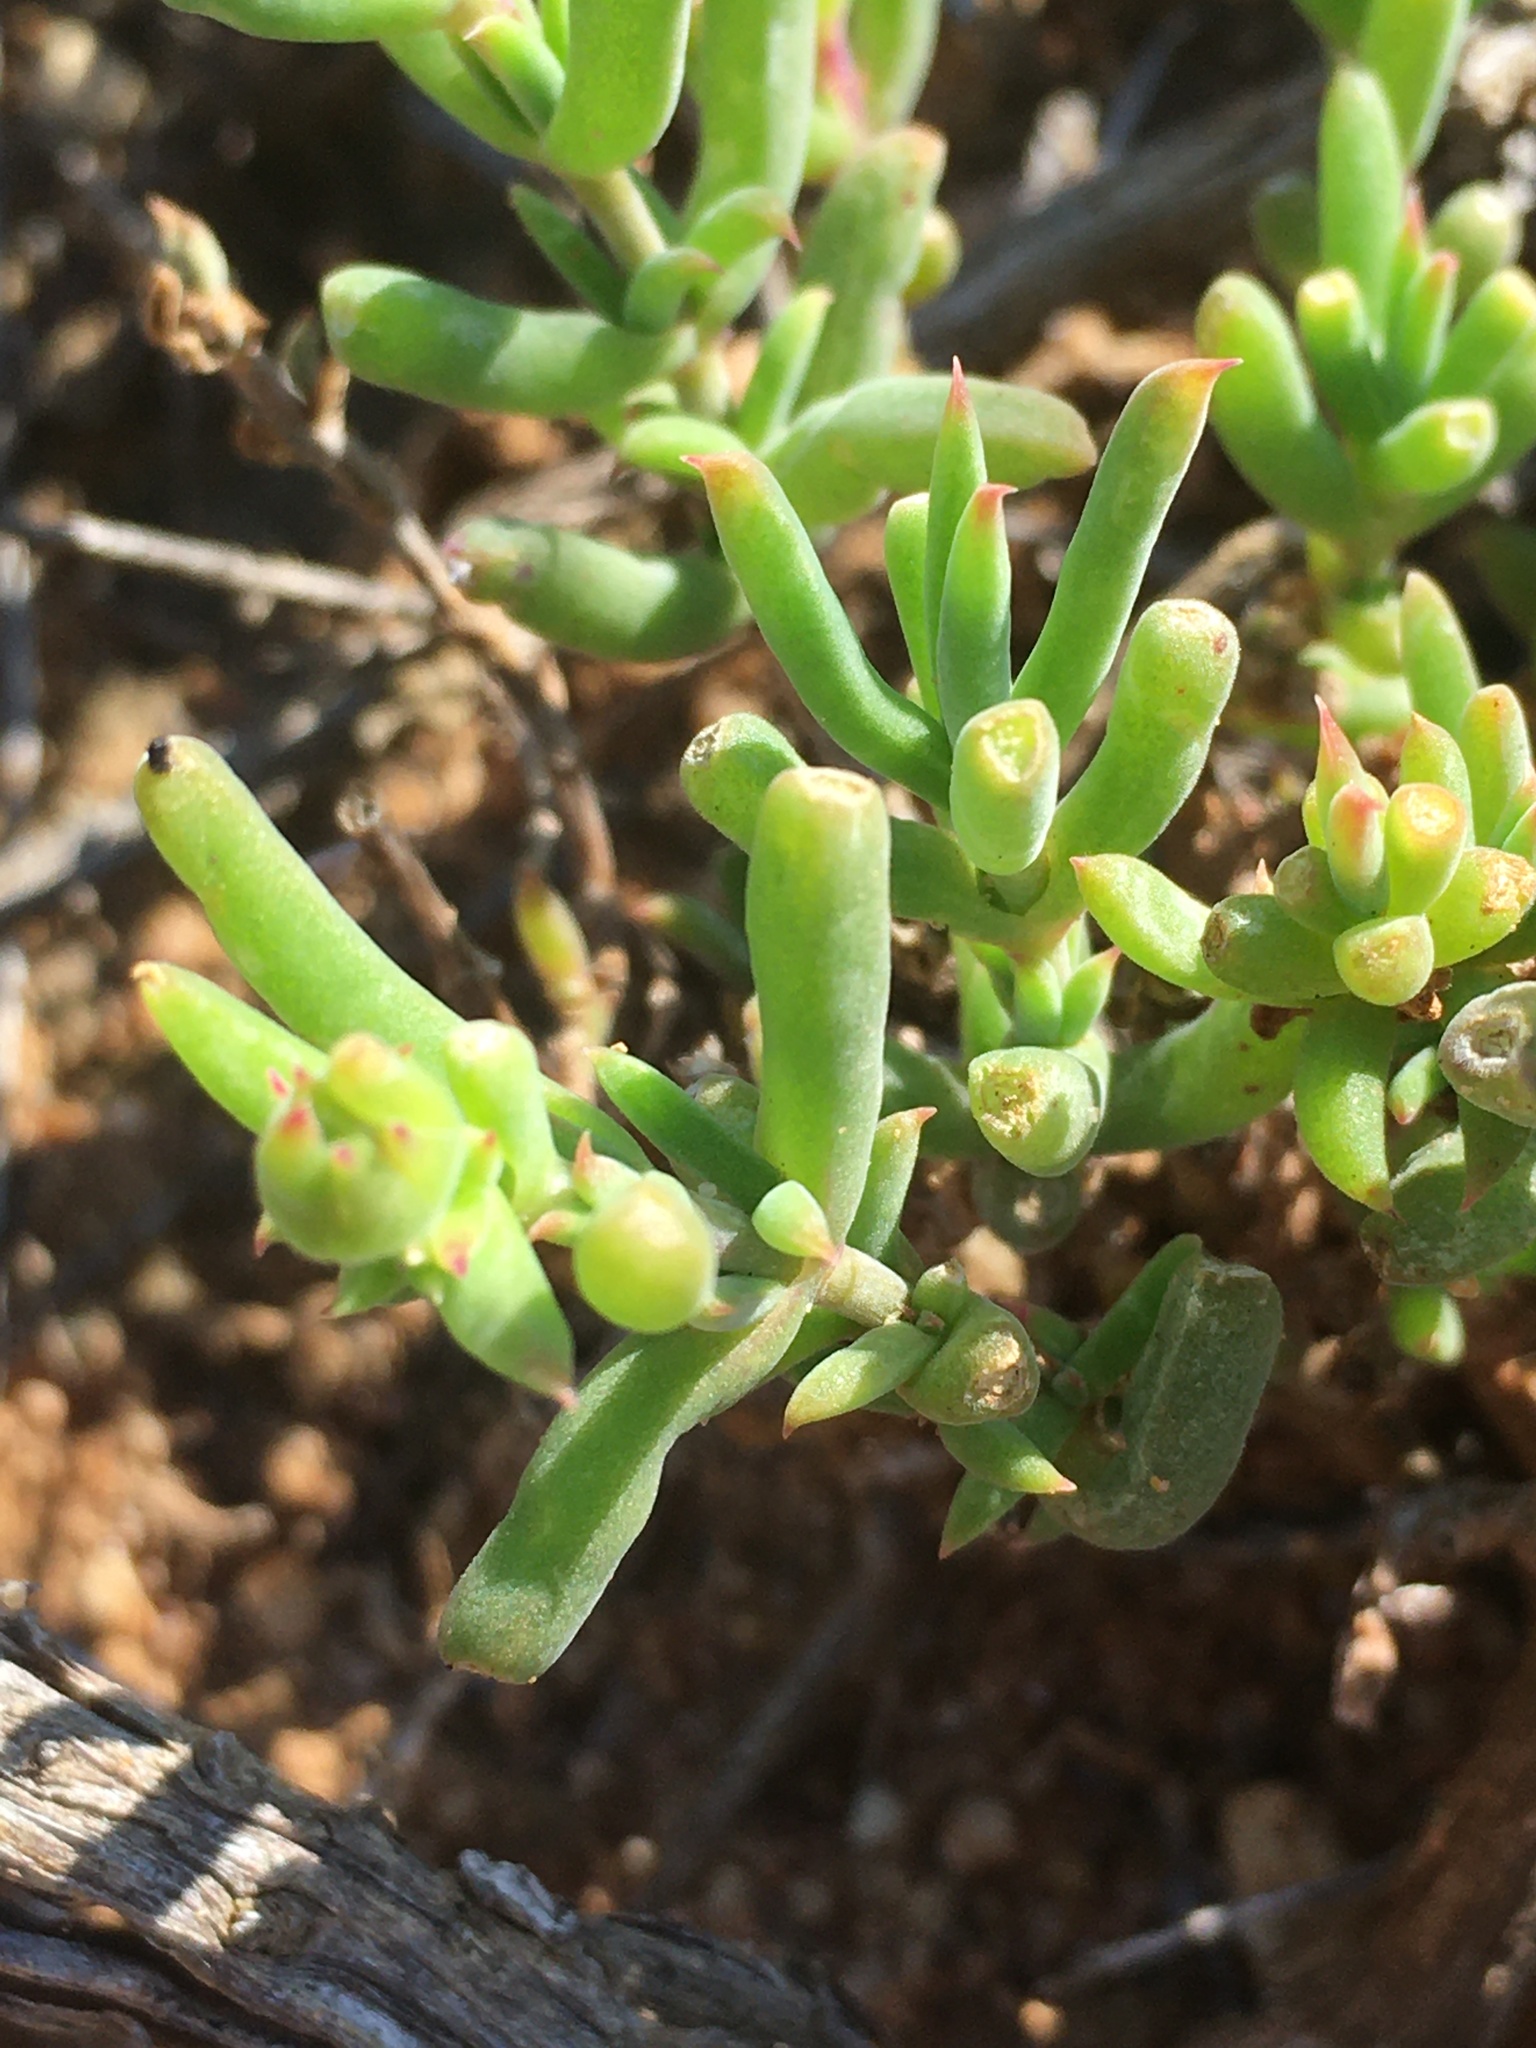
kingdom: Plantae
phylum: Tracheophyta
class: Magnoliopsida
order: Caryophyllales
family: Aizoaceae
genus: Delosperma
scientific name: Delosperma fredericii
